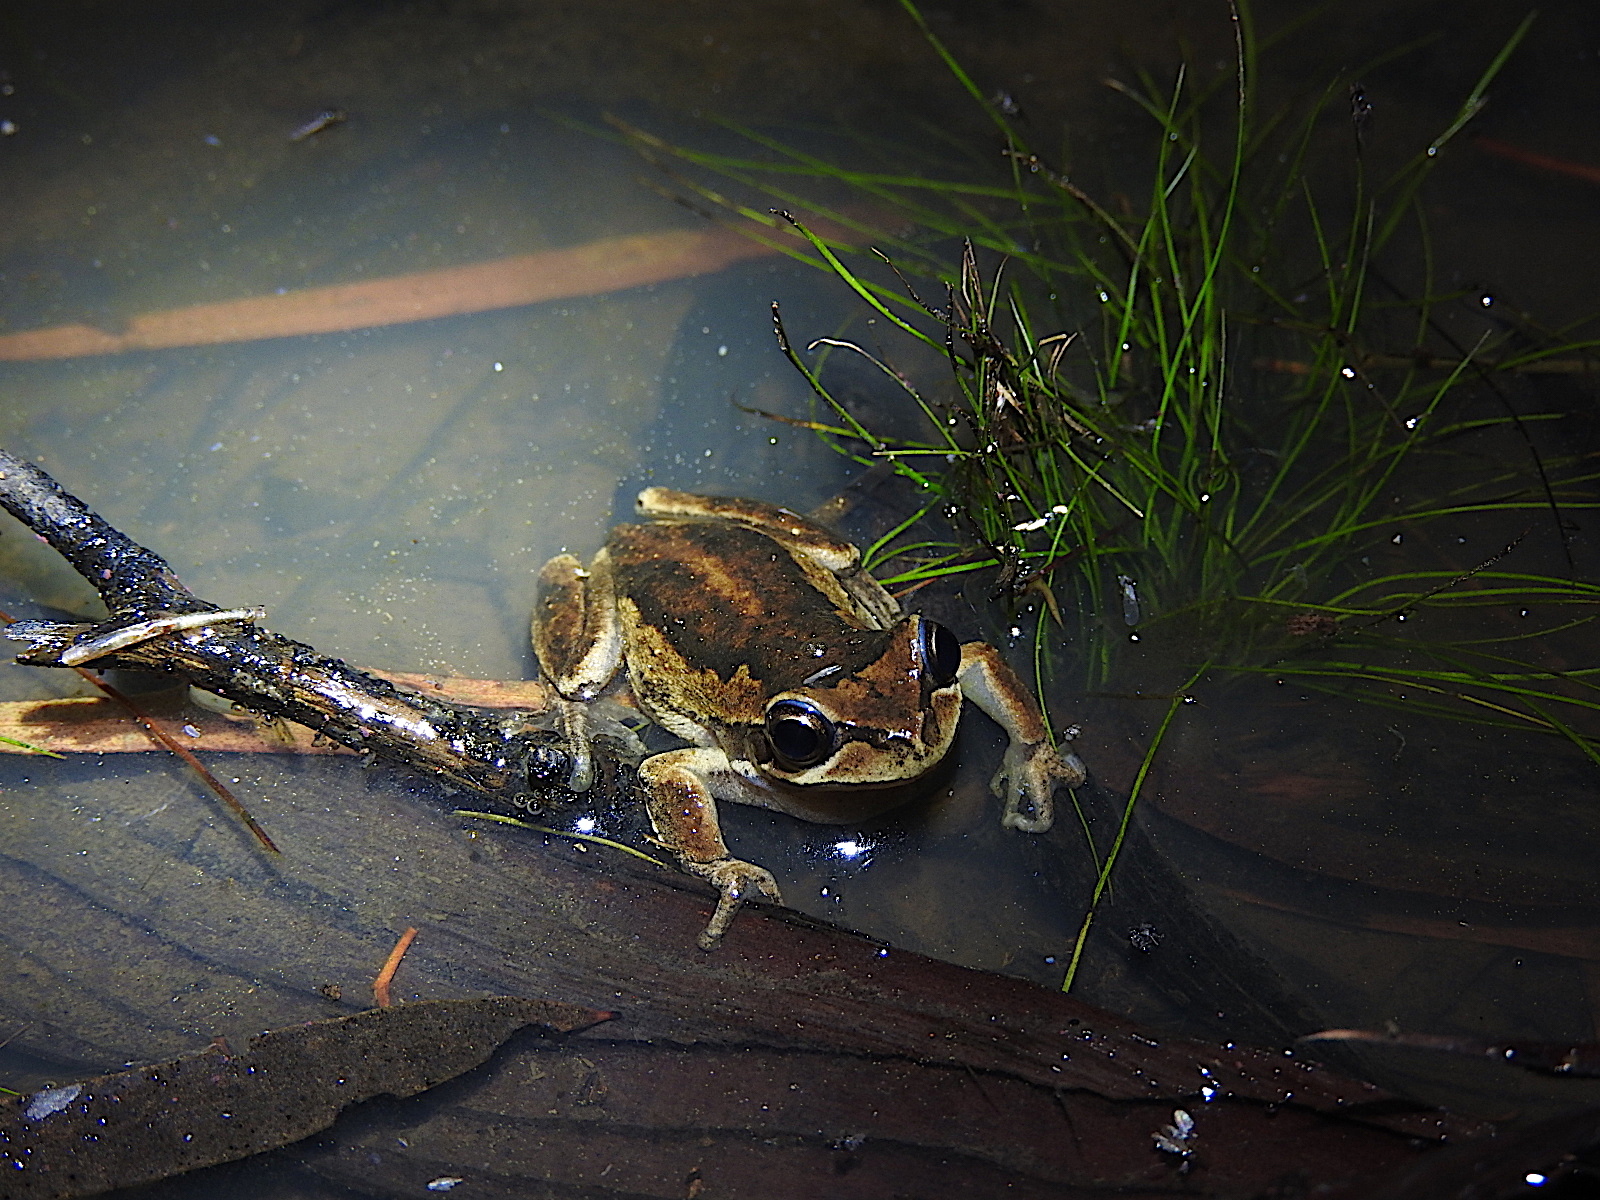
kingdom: Animalia
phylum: Chordata
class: Amphibia
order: Anura
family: Pelodryadidae
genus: Litoria
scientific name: Litoria ewingii
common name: Southern brown tree frog
